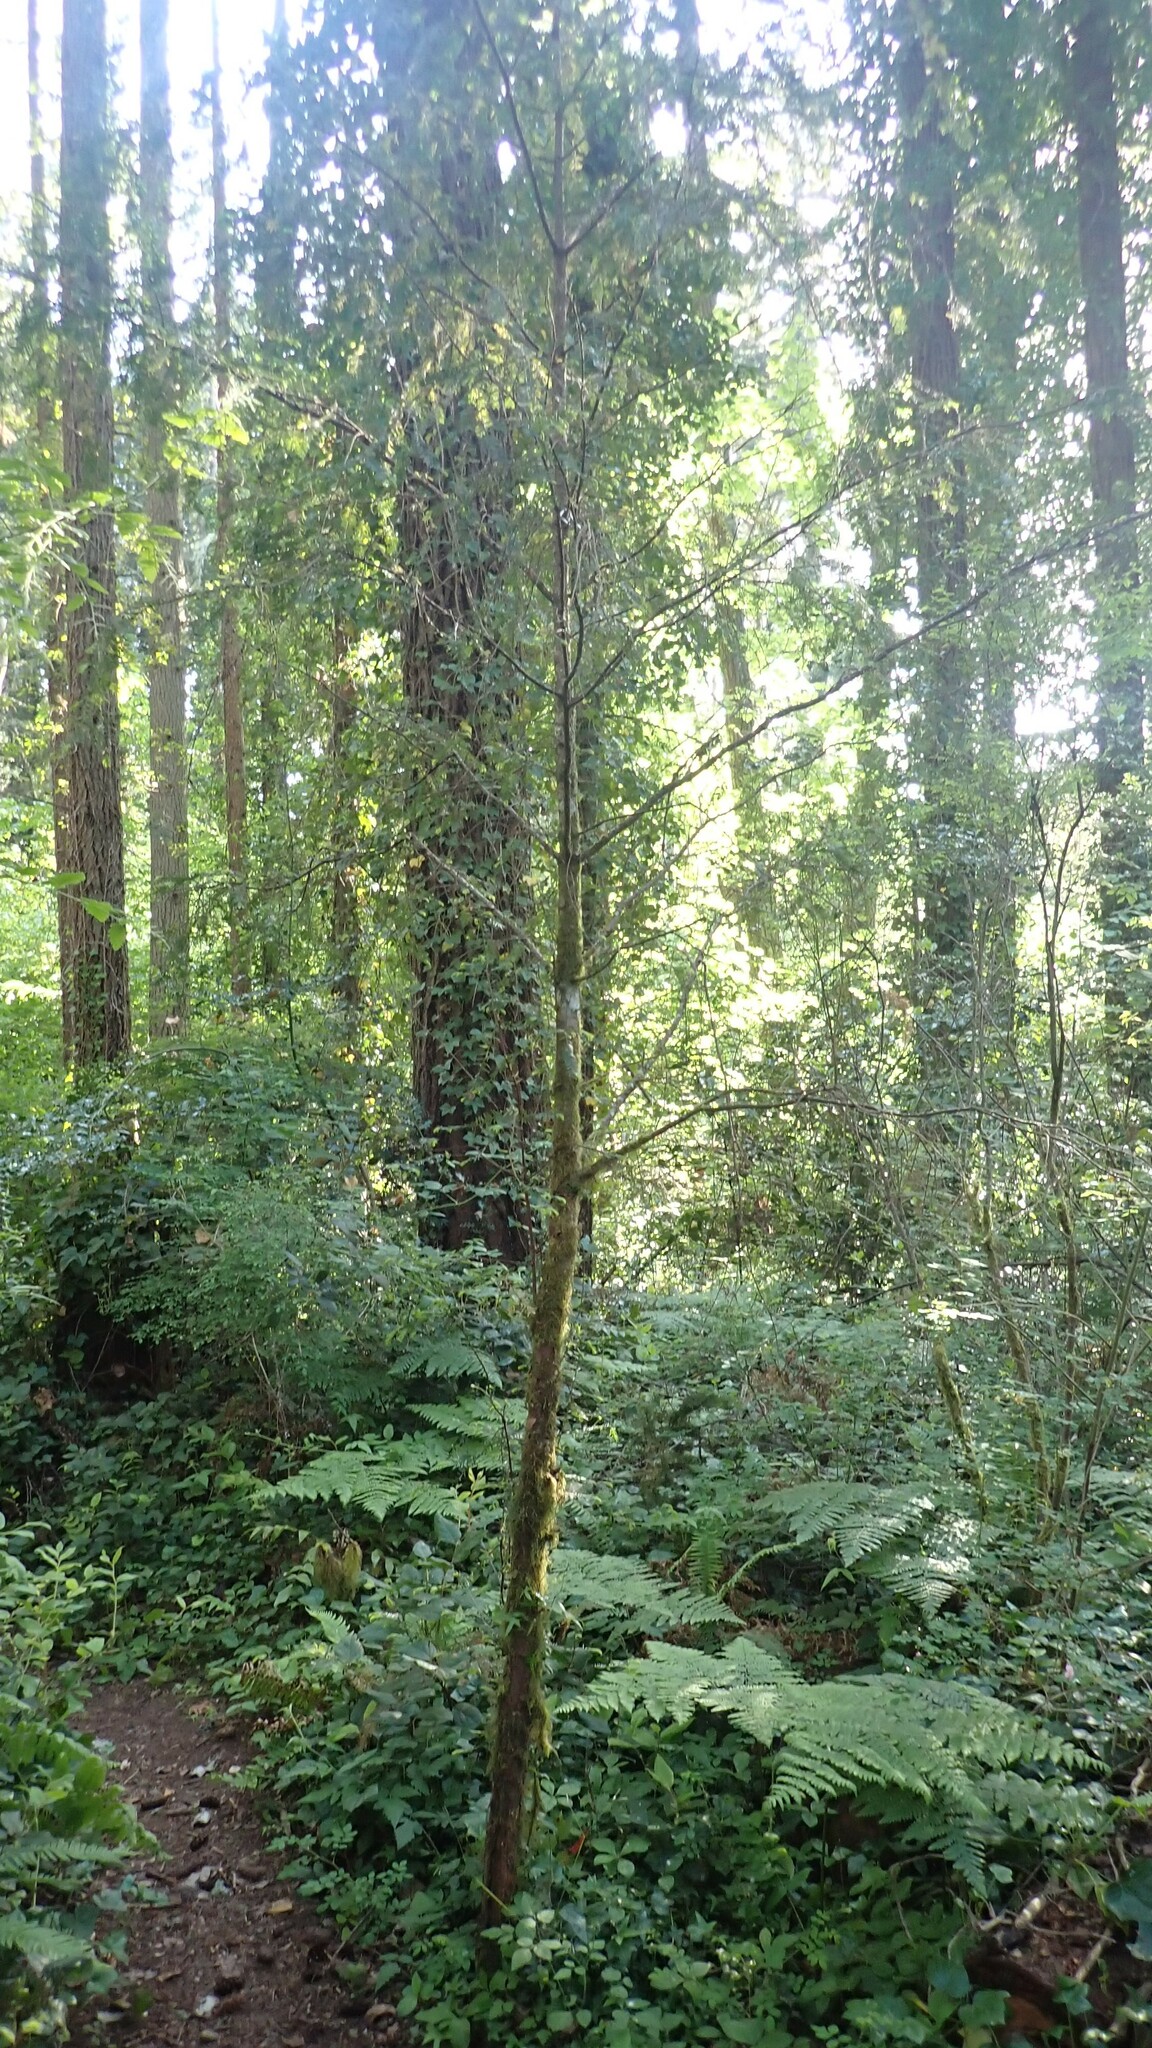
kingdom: Plantae
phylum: Tracheophyta
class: Pinopsida
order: Pinales
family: Taxaceae
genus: Taxus
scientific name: Taxus brevifolia
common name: Pacific yew
